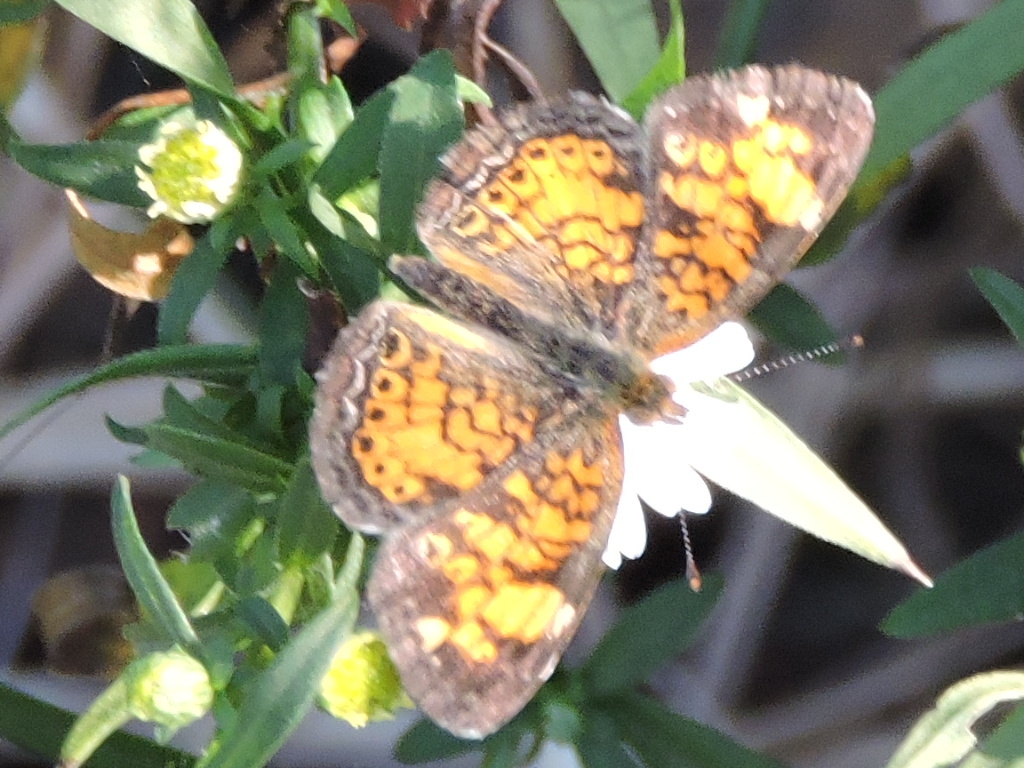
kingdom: Animalia
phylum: Arthropoda
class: Insecta
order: Lepidoptera
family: Nymphalidae
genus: Phyciodes
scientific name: Phyciodes tharos
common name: Pearl crescent
